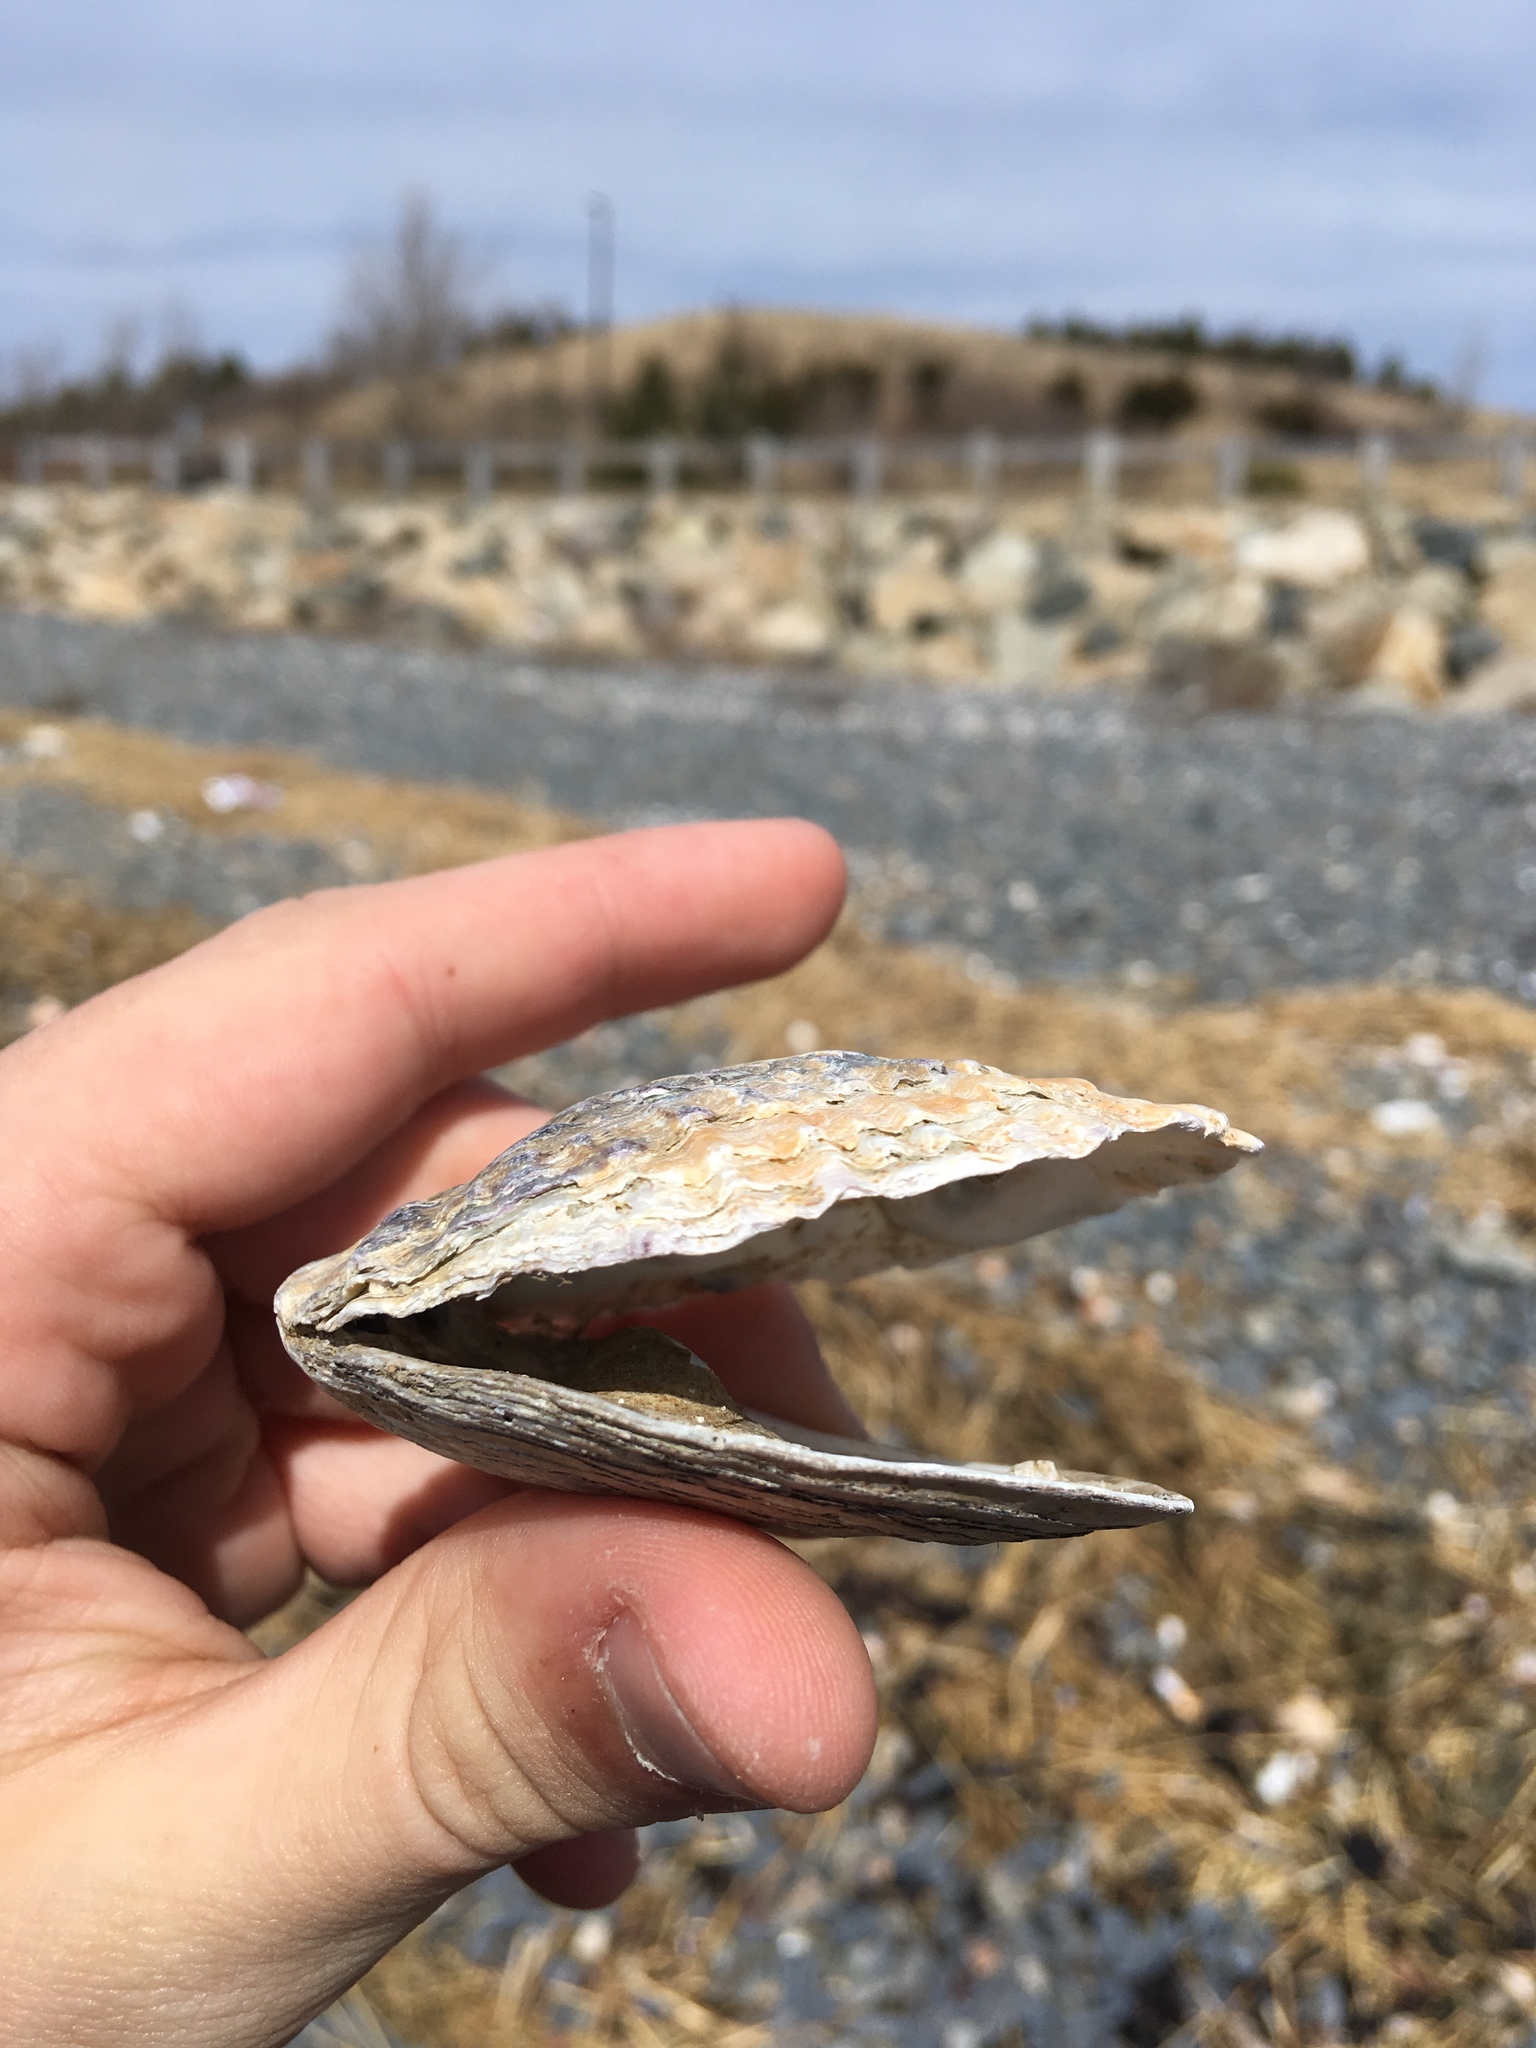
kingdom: Animalia
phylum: Mollusca
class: Bivalvia
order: Ostreida
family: Ostreidae
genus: Ostrea
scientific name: Ostrea edulis
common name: Flat oyster
